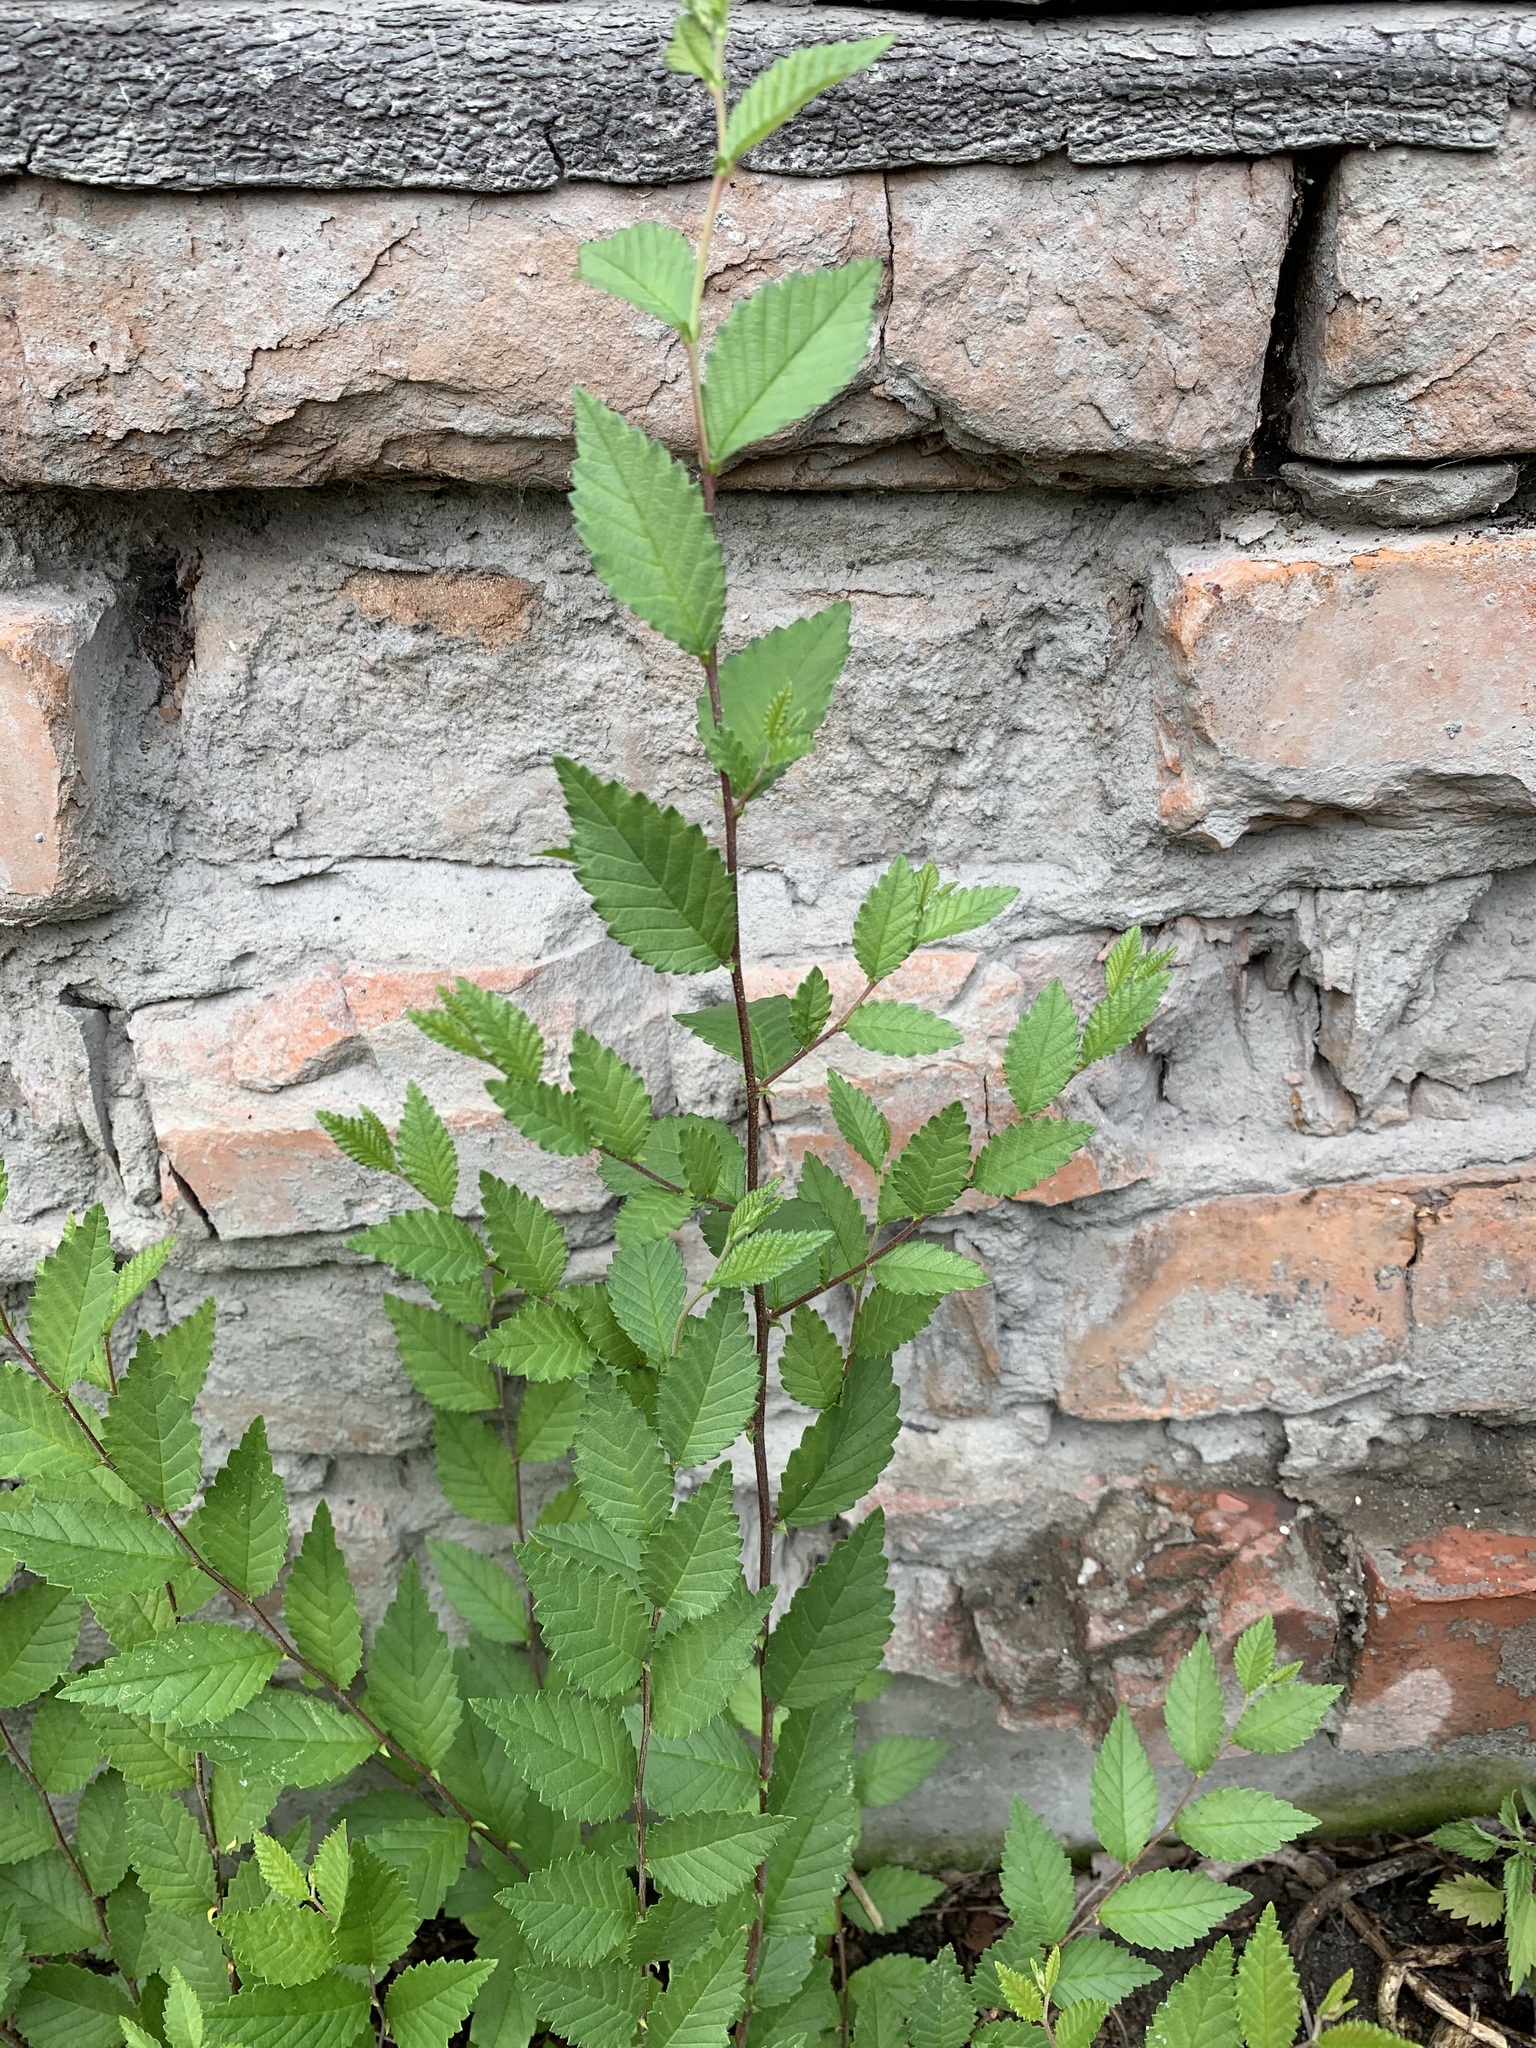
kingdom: Plantae
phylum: Tracheophyta
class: Magnoliopsida
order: Rosales
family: Ulmaceae
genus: Ulmus
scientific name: Ulmus pumila
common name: Siberian elm
